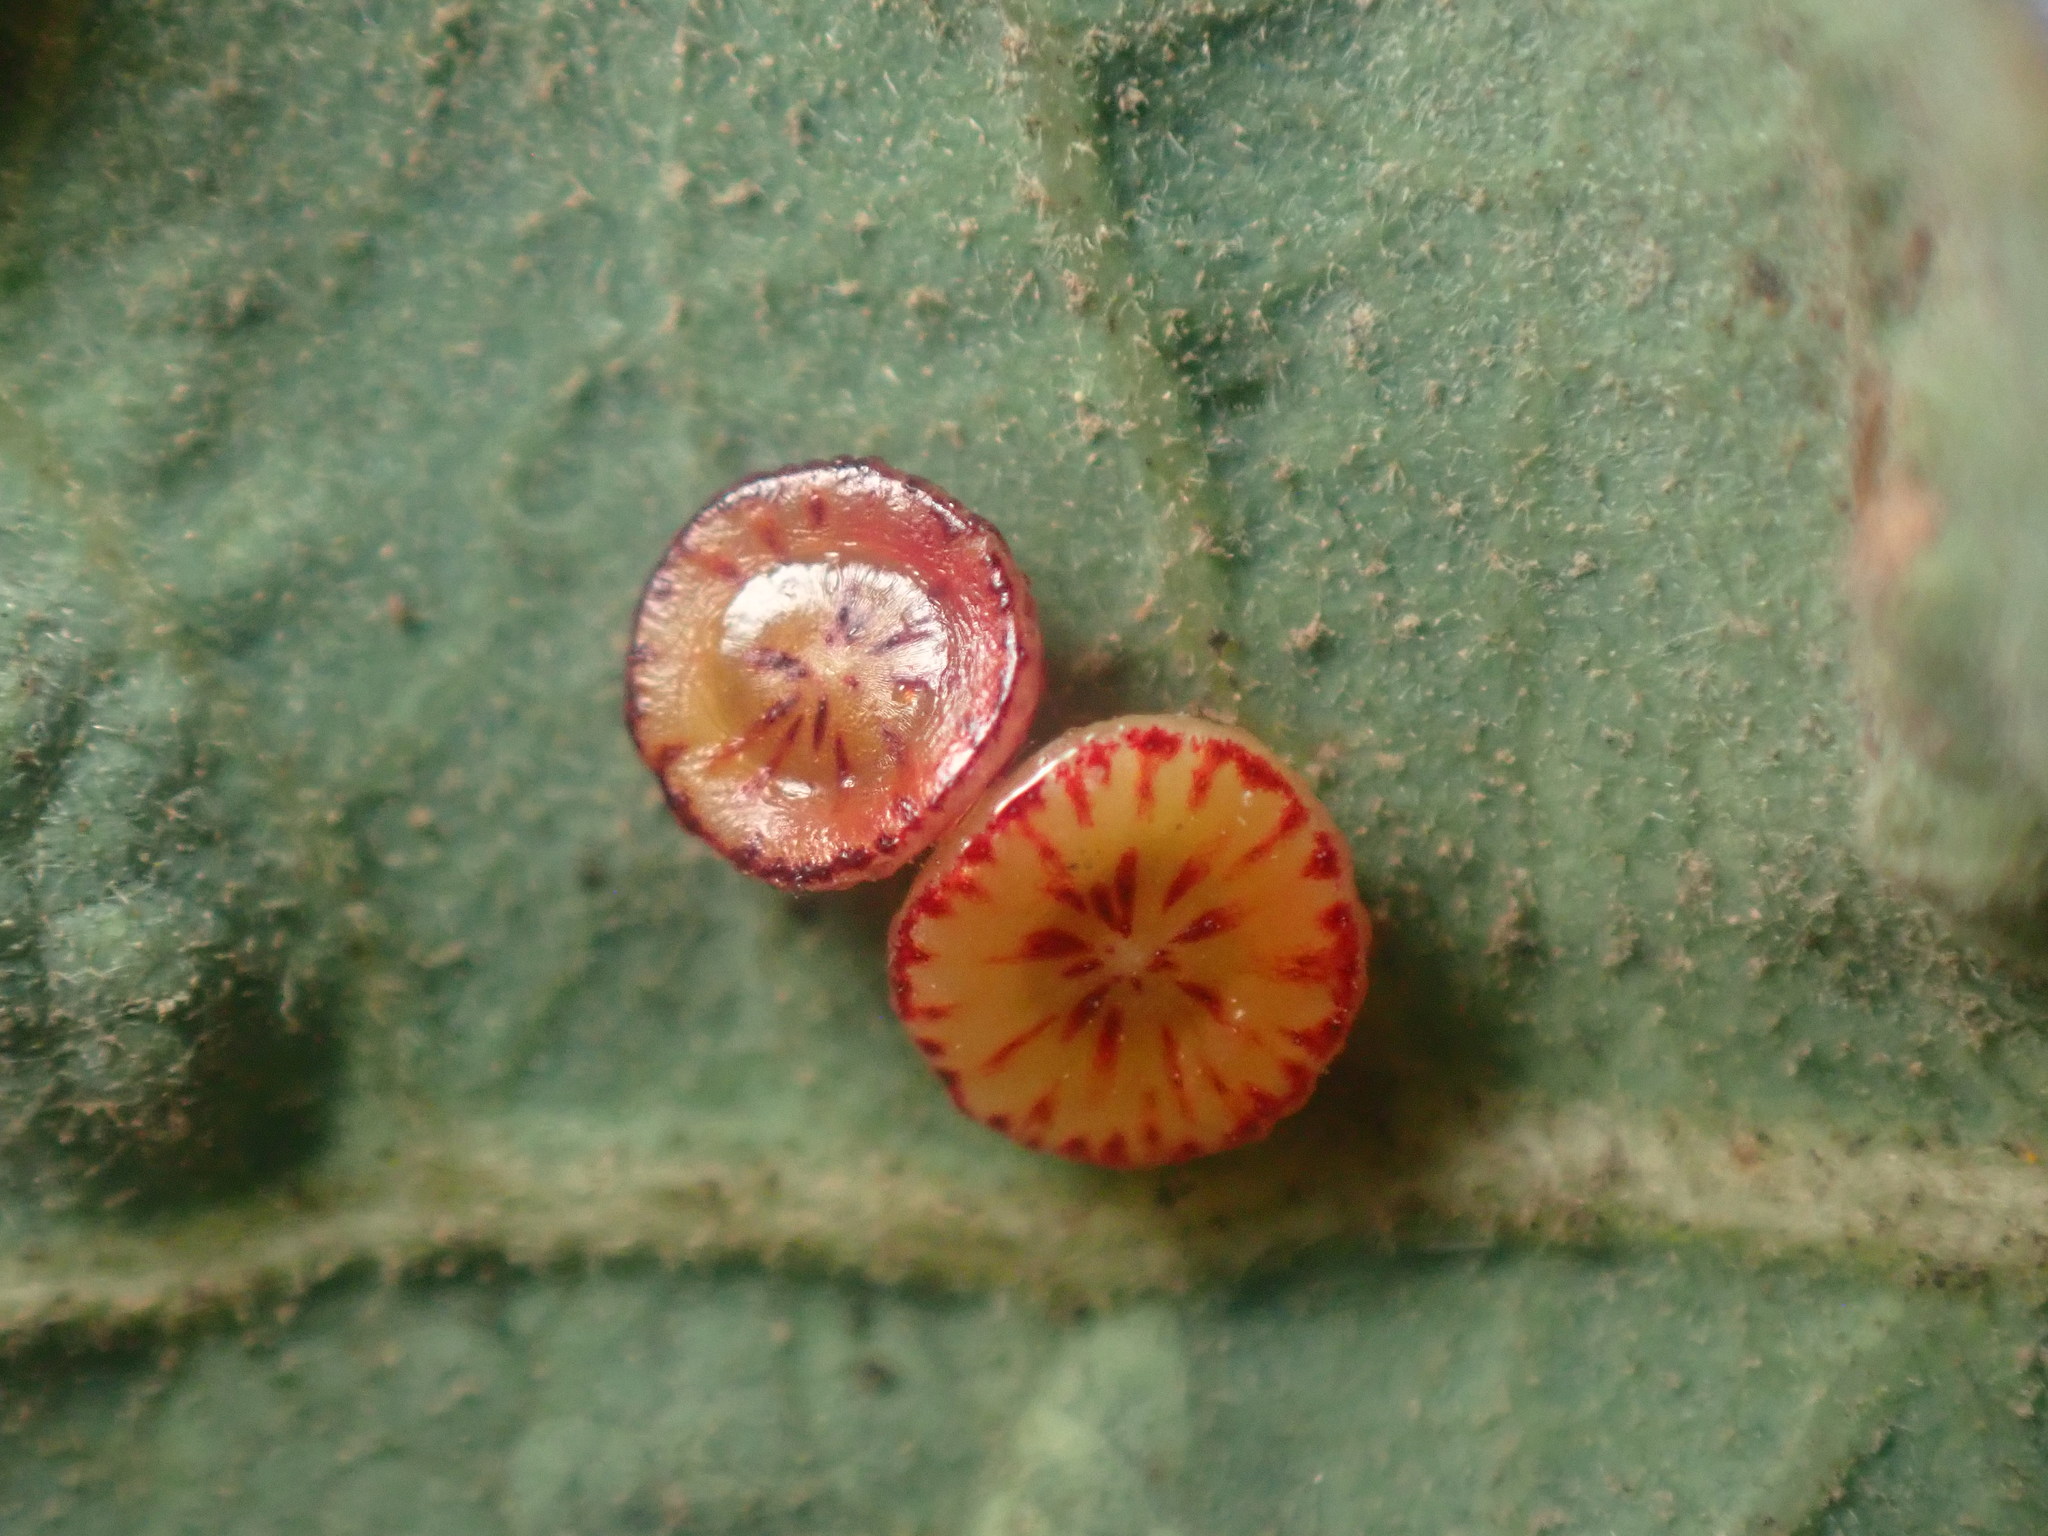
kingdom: Animalia
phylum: Arthropoda
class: Insecta
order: Hymenoptera
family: Cynipidae
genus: Andricus
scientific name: Andricus
